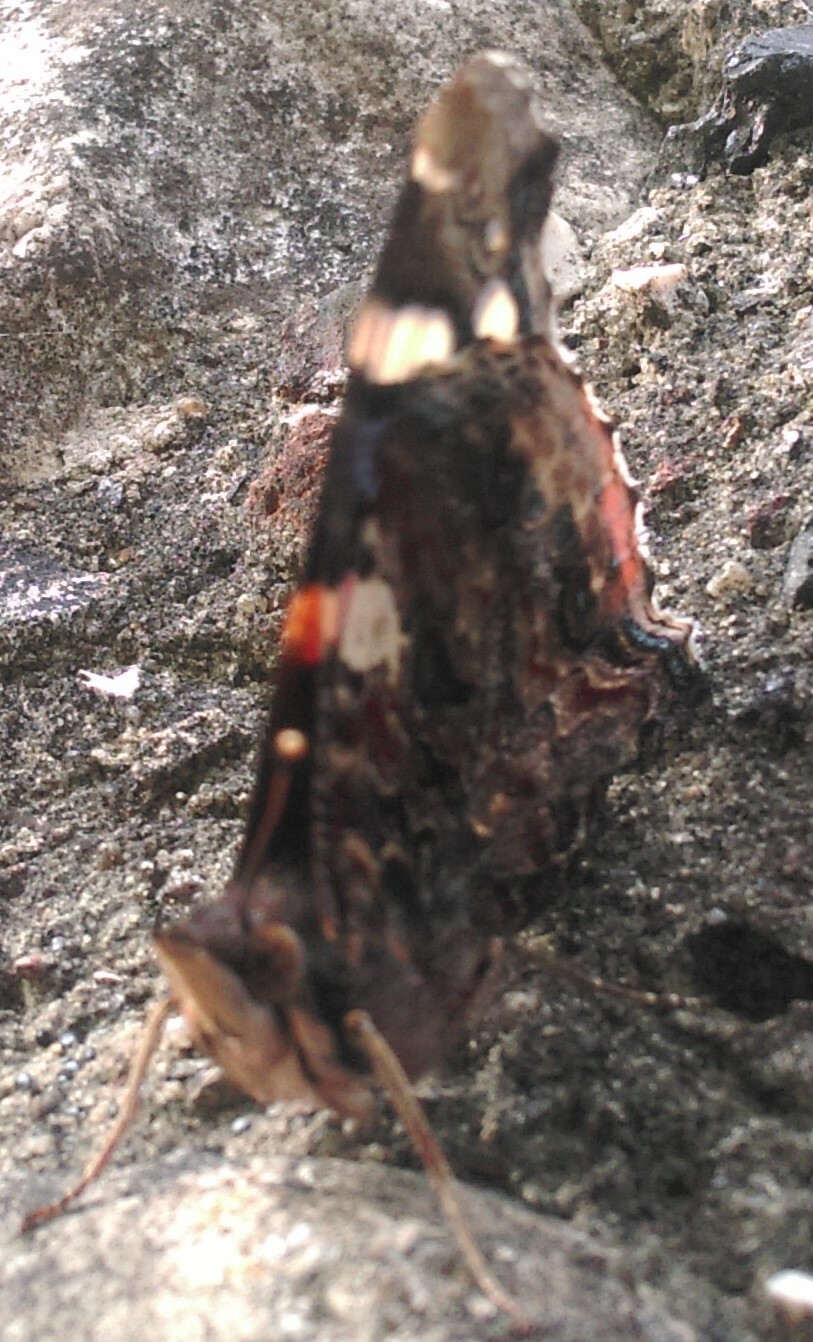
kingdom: Animalia
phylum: Arthropoda
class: Insecta
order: Lepidoptera
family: Nymphalidae
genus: Vanessa
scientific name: Vanessa atalanta
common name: Red admiral
